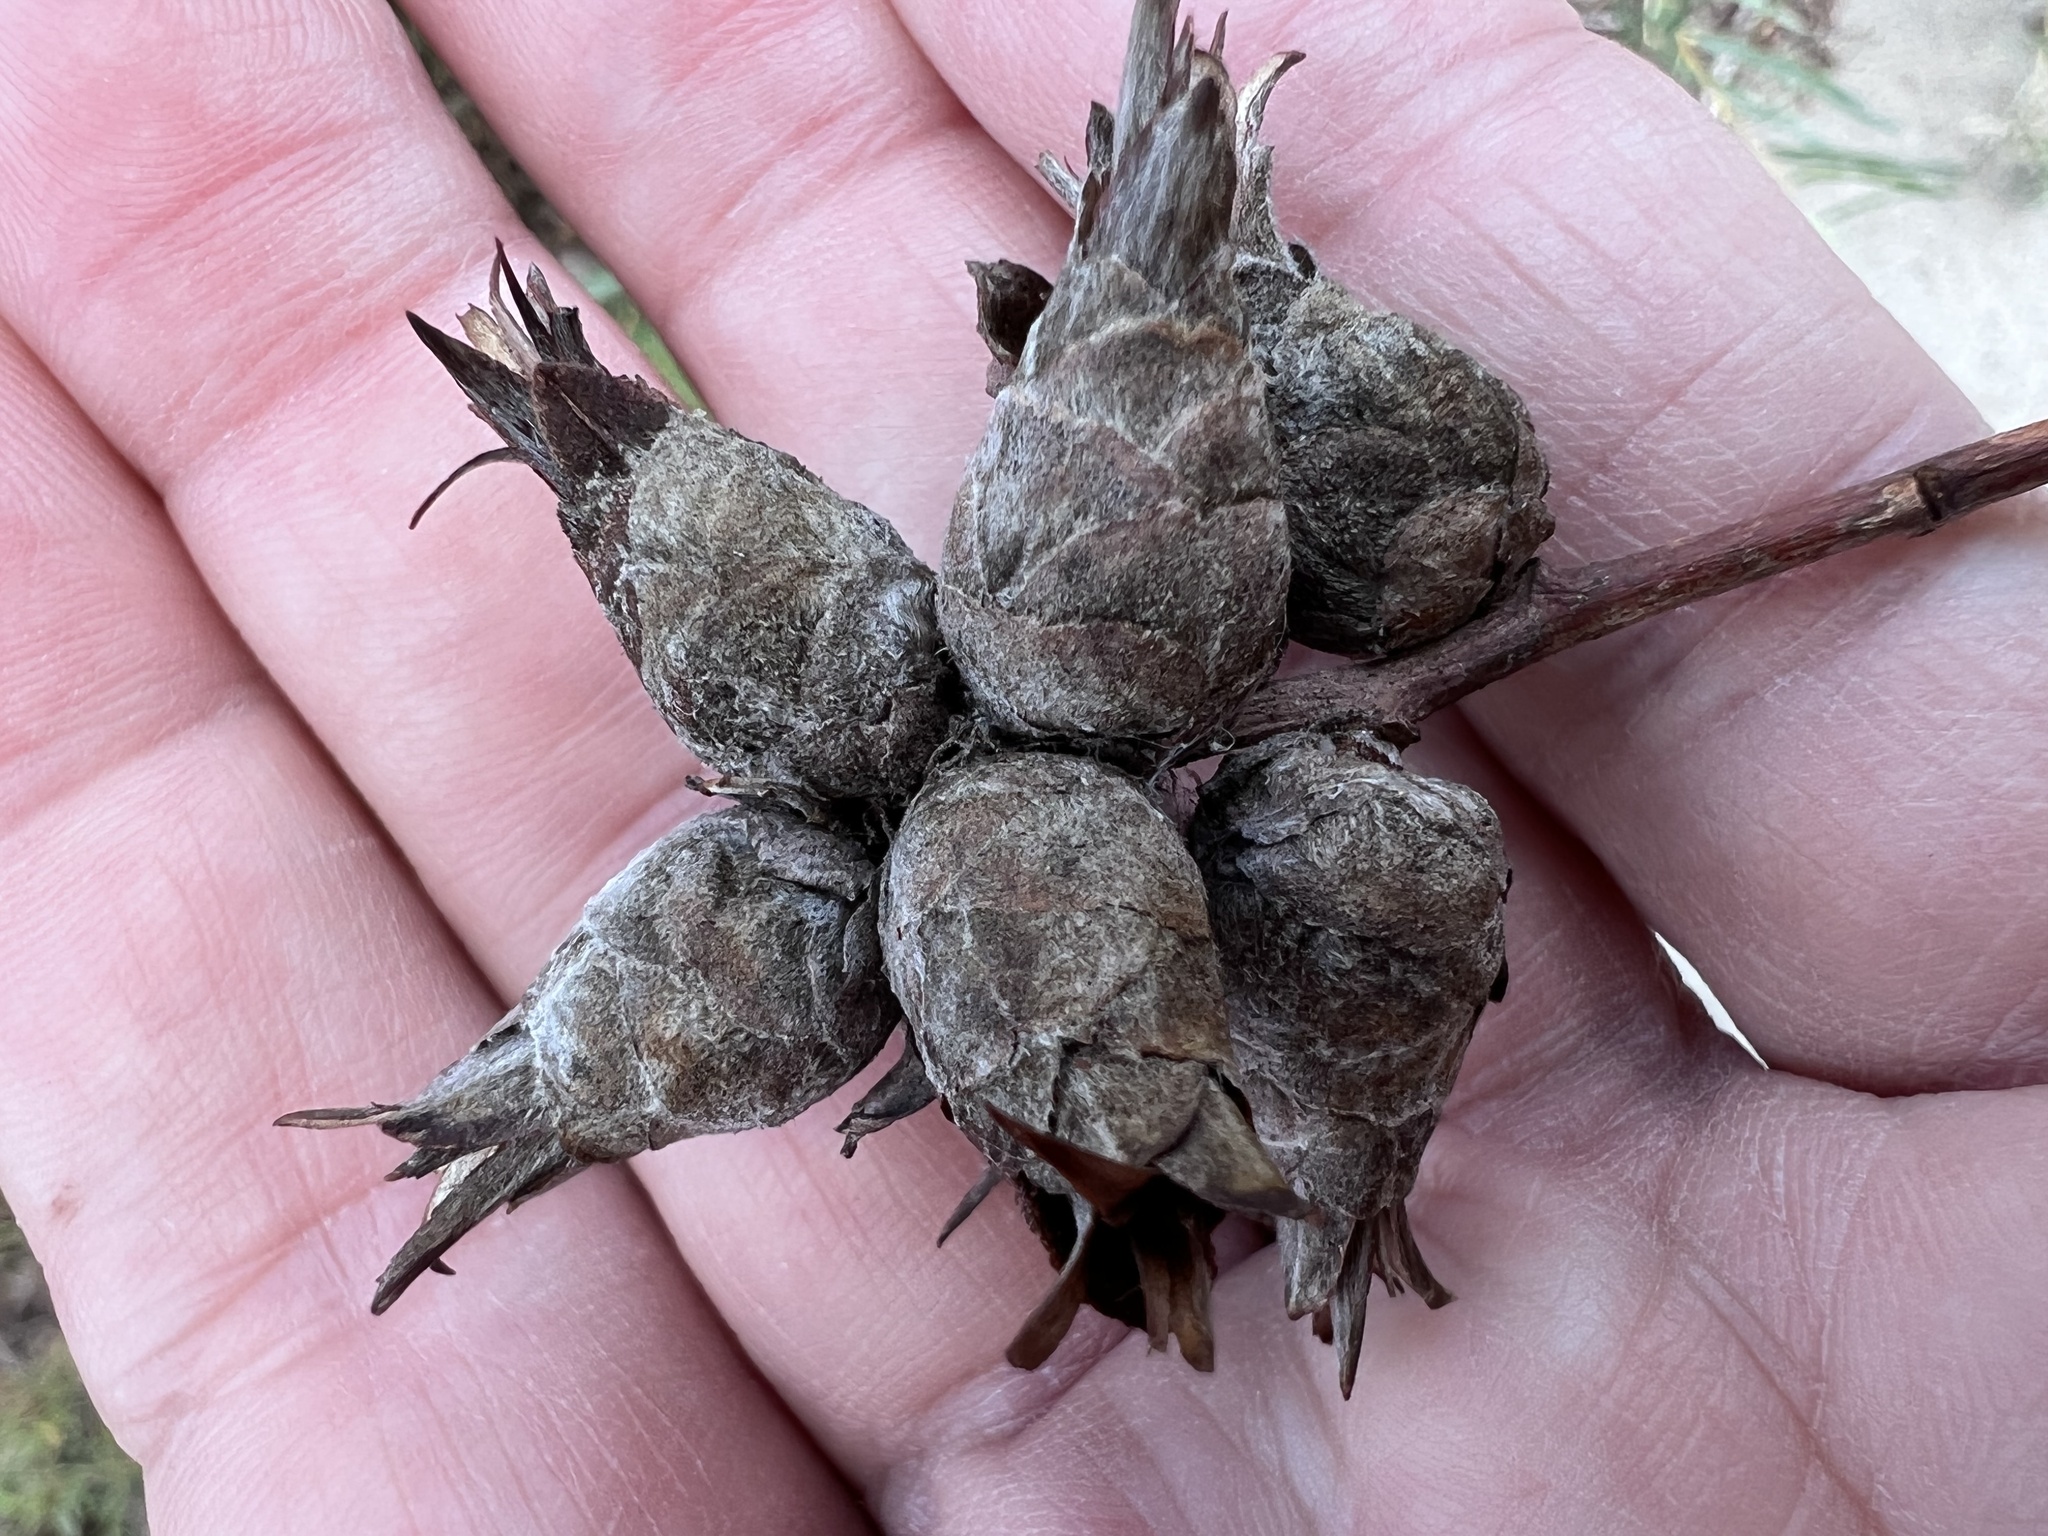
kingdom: Animalia
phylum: Arthropoda
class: Insecta
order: Diptera
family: Cecidomyiidae
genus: Rabdophaga
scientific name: Rabdophaga strobiloides
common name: Willow pinecone gall midge
